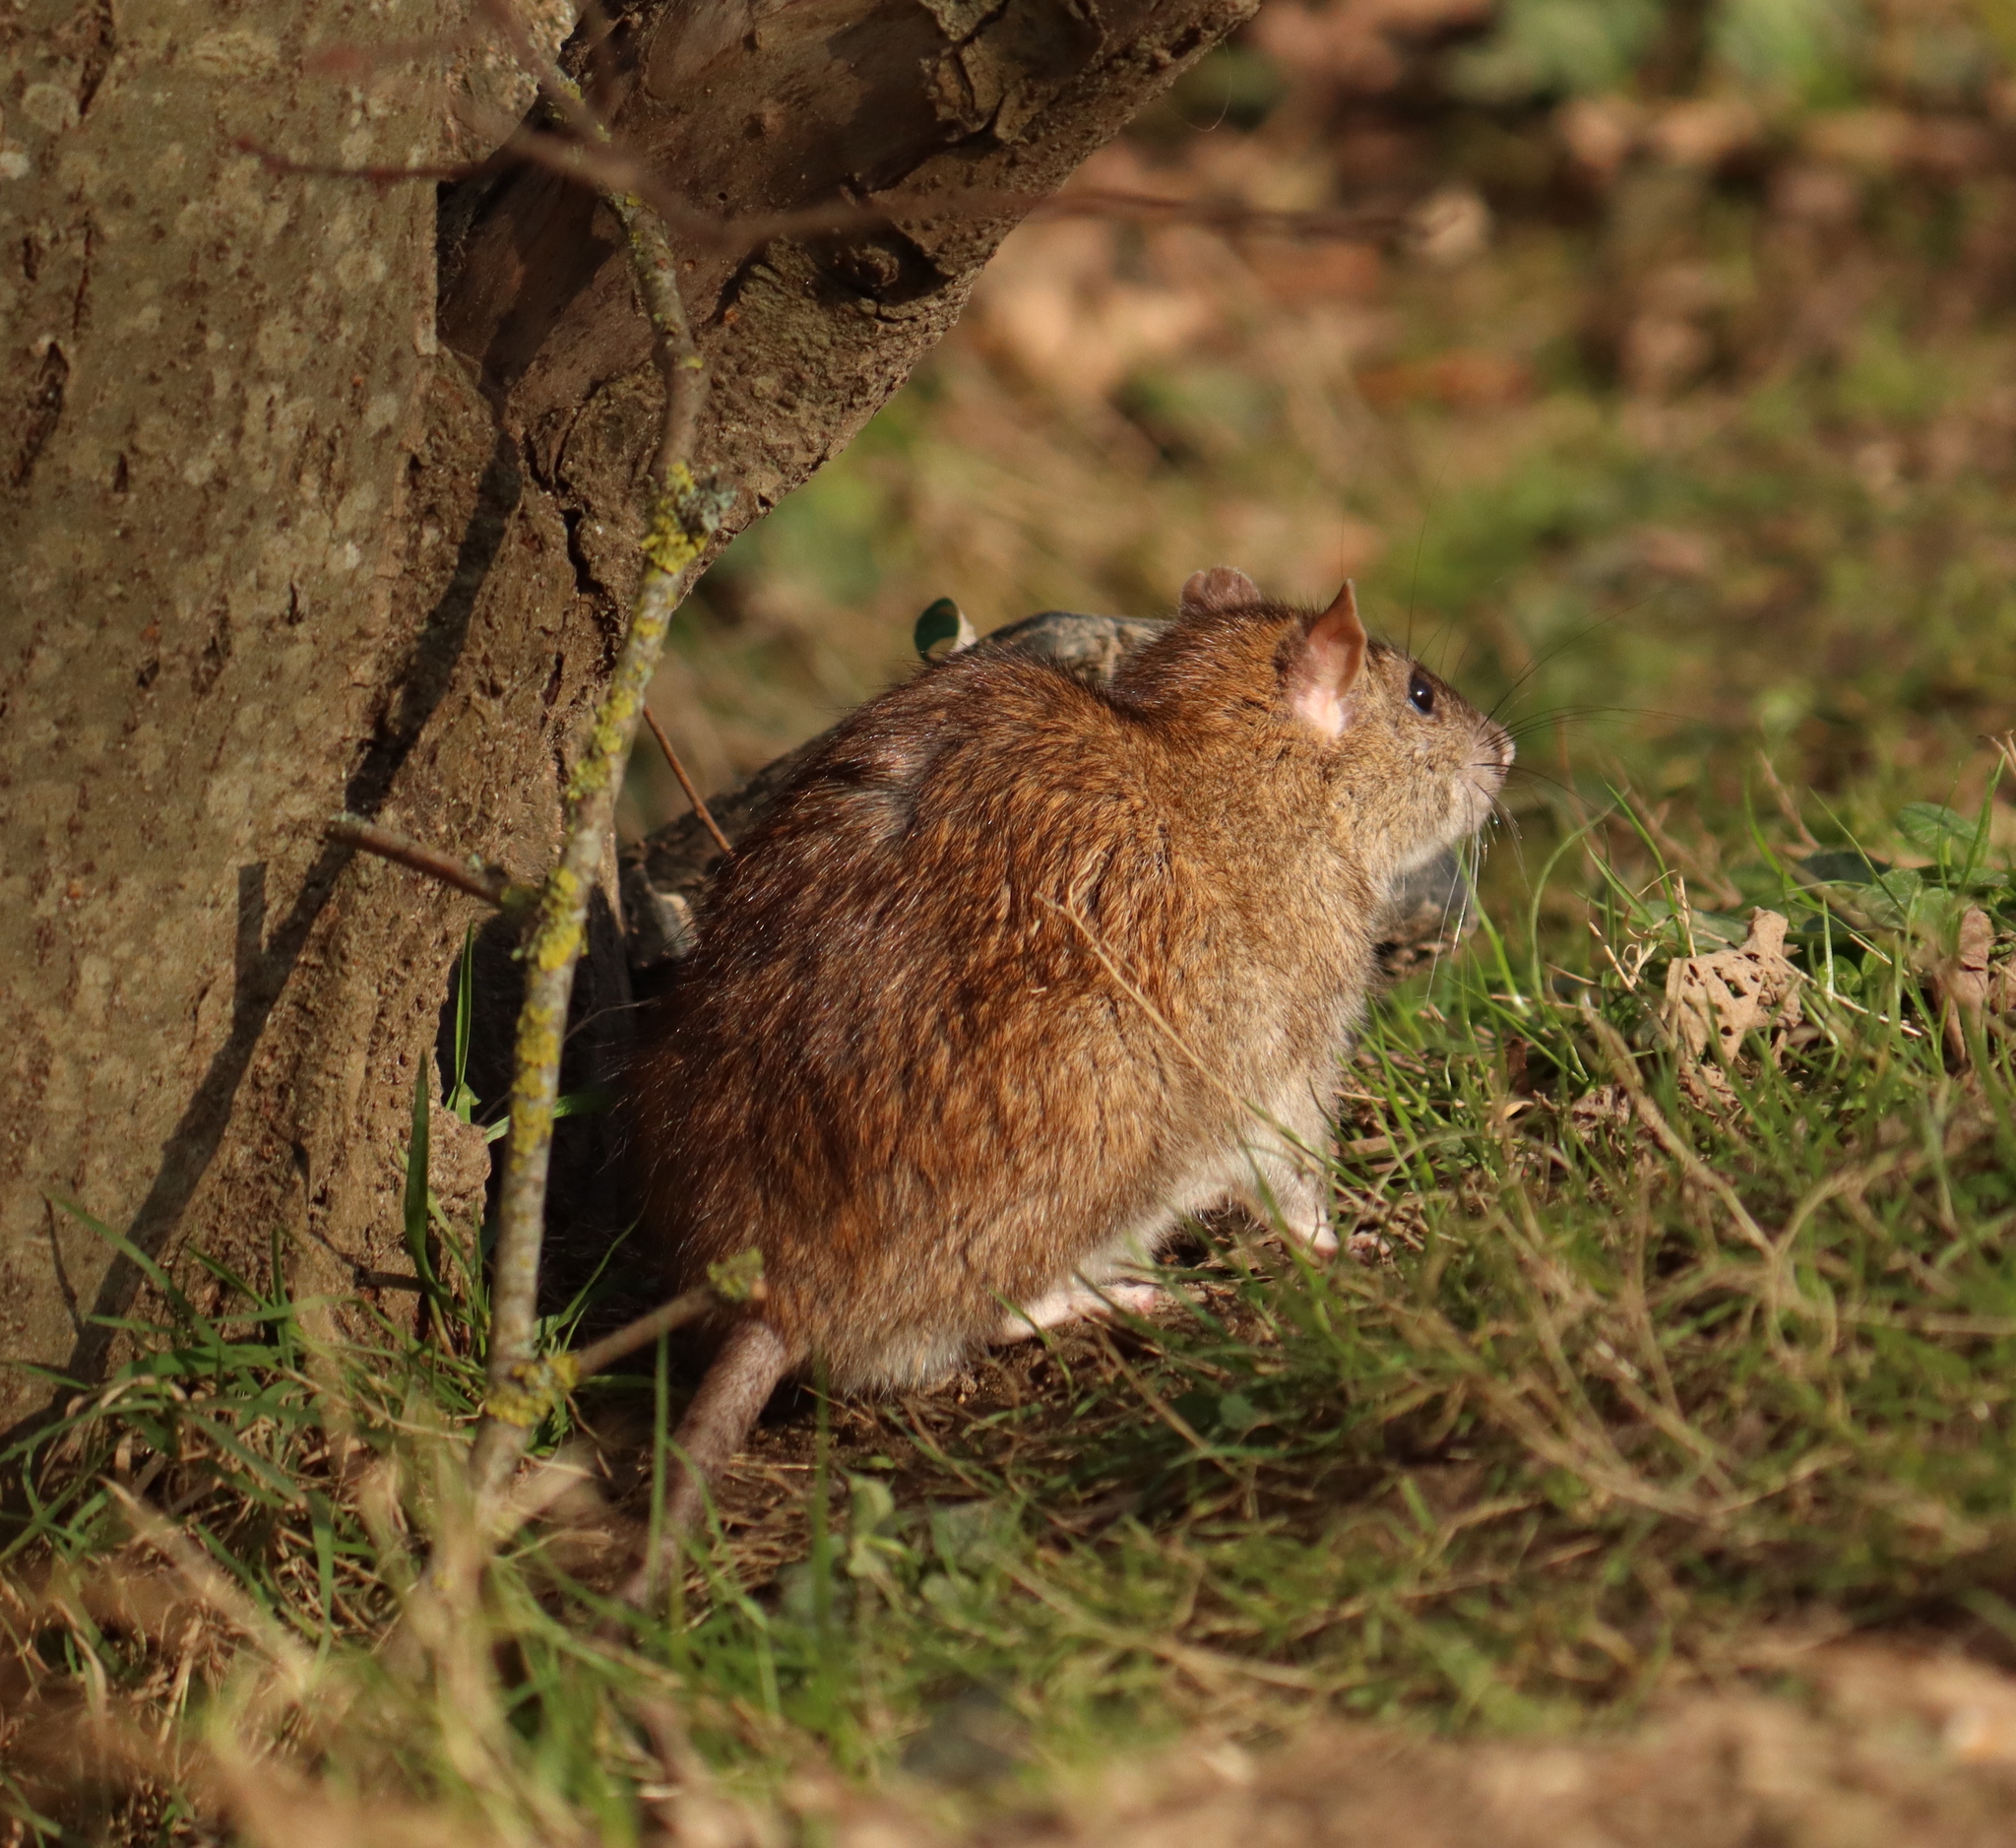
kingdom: Animalia
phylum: Chordata
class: Mammalia
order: Rodentia
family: Muridae
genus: Rattus
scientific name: Rattus norvegicus
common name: Brown rat
